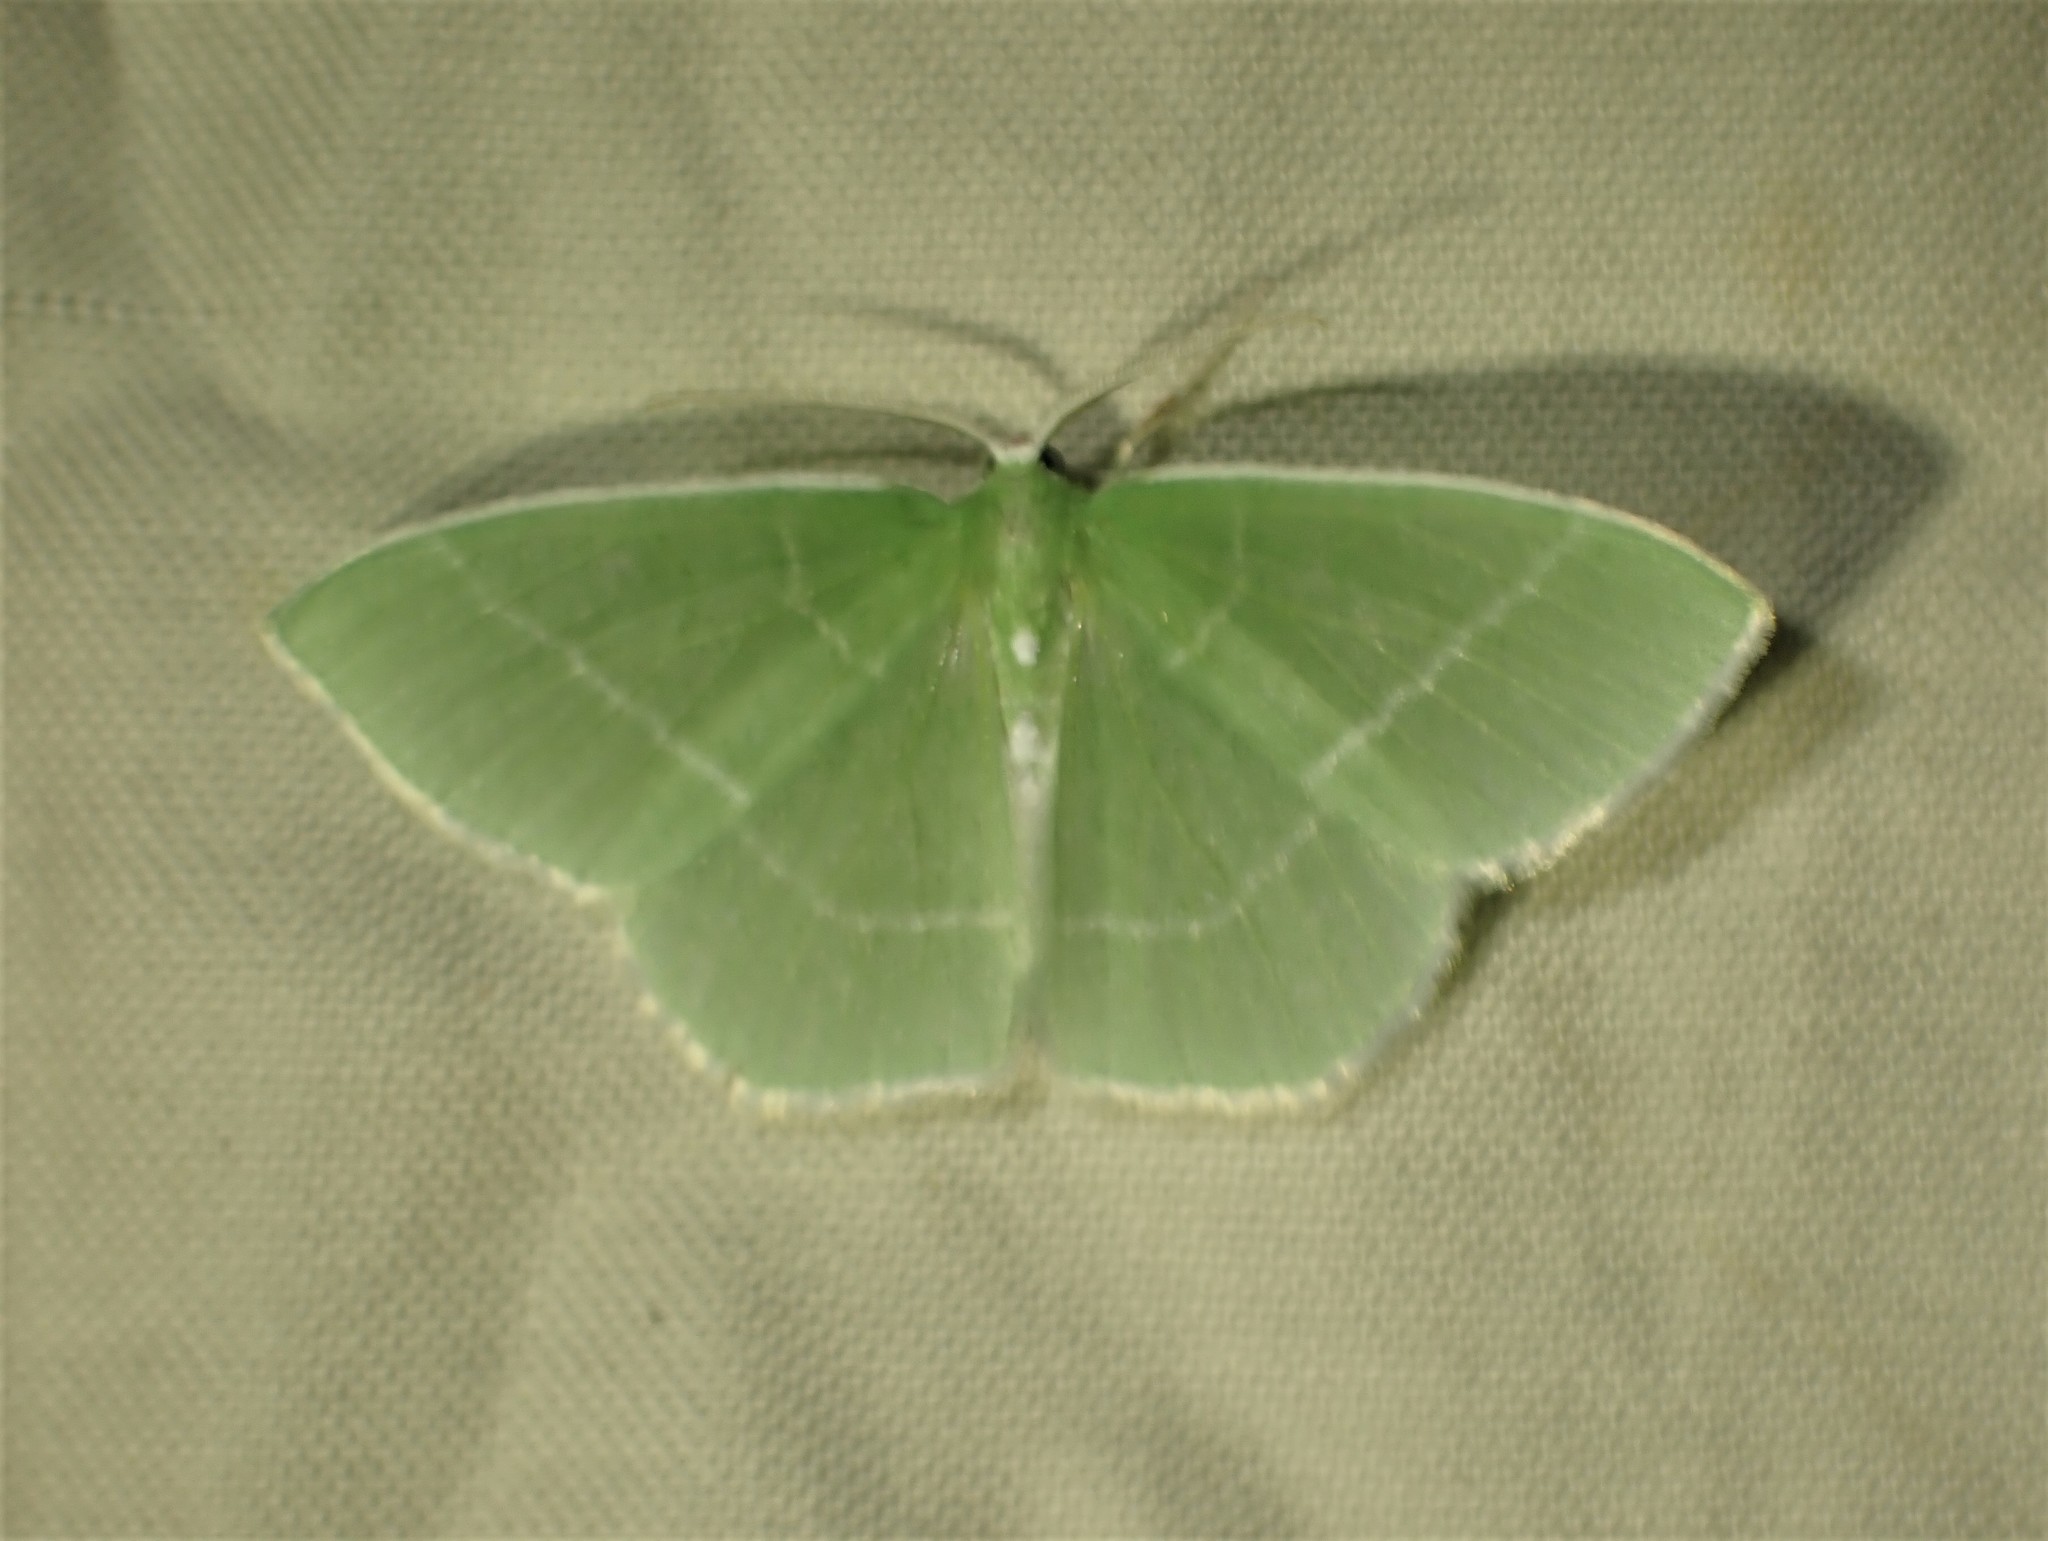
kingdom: Animalia
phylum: Arthropoda
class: Insecta
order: Lepidoptera
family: Geometridae
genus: Nemoria
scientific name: Nemoria mimosaria
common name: White-fringed emerald
